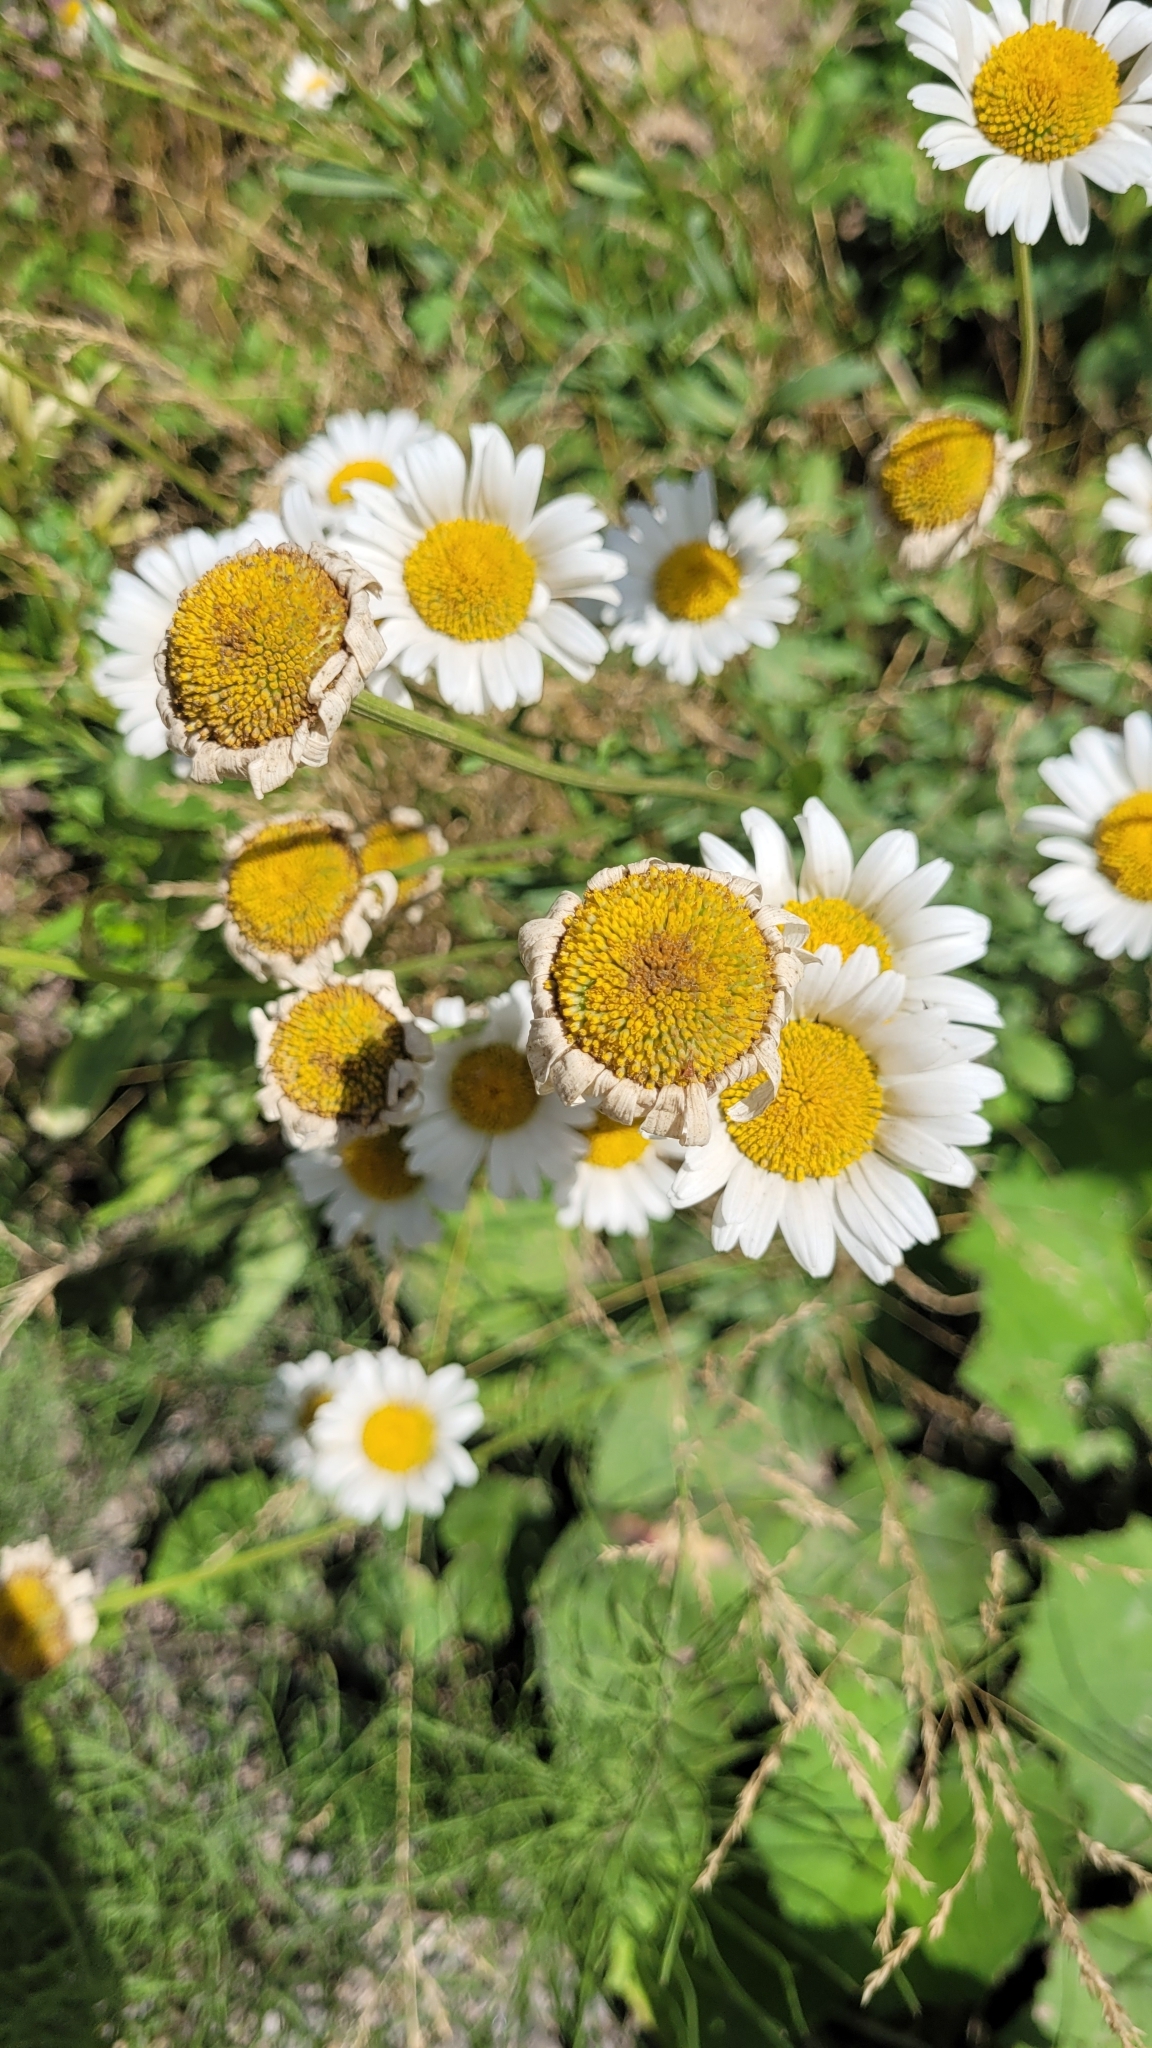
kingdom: Plantae
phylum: Tracheophyta
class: Magnoliopsida
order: Asterales
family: Asteraceae
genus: Leucanthemum
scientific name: Leucanthemum vulgare
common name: Oxeye daisy
